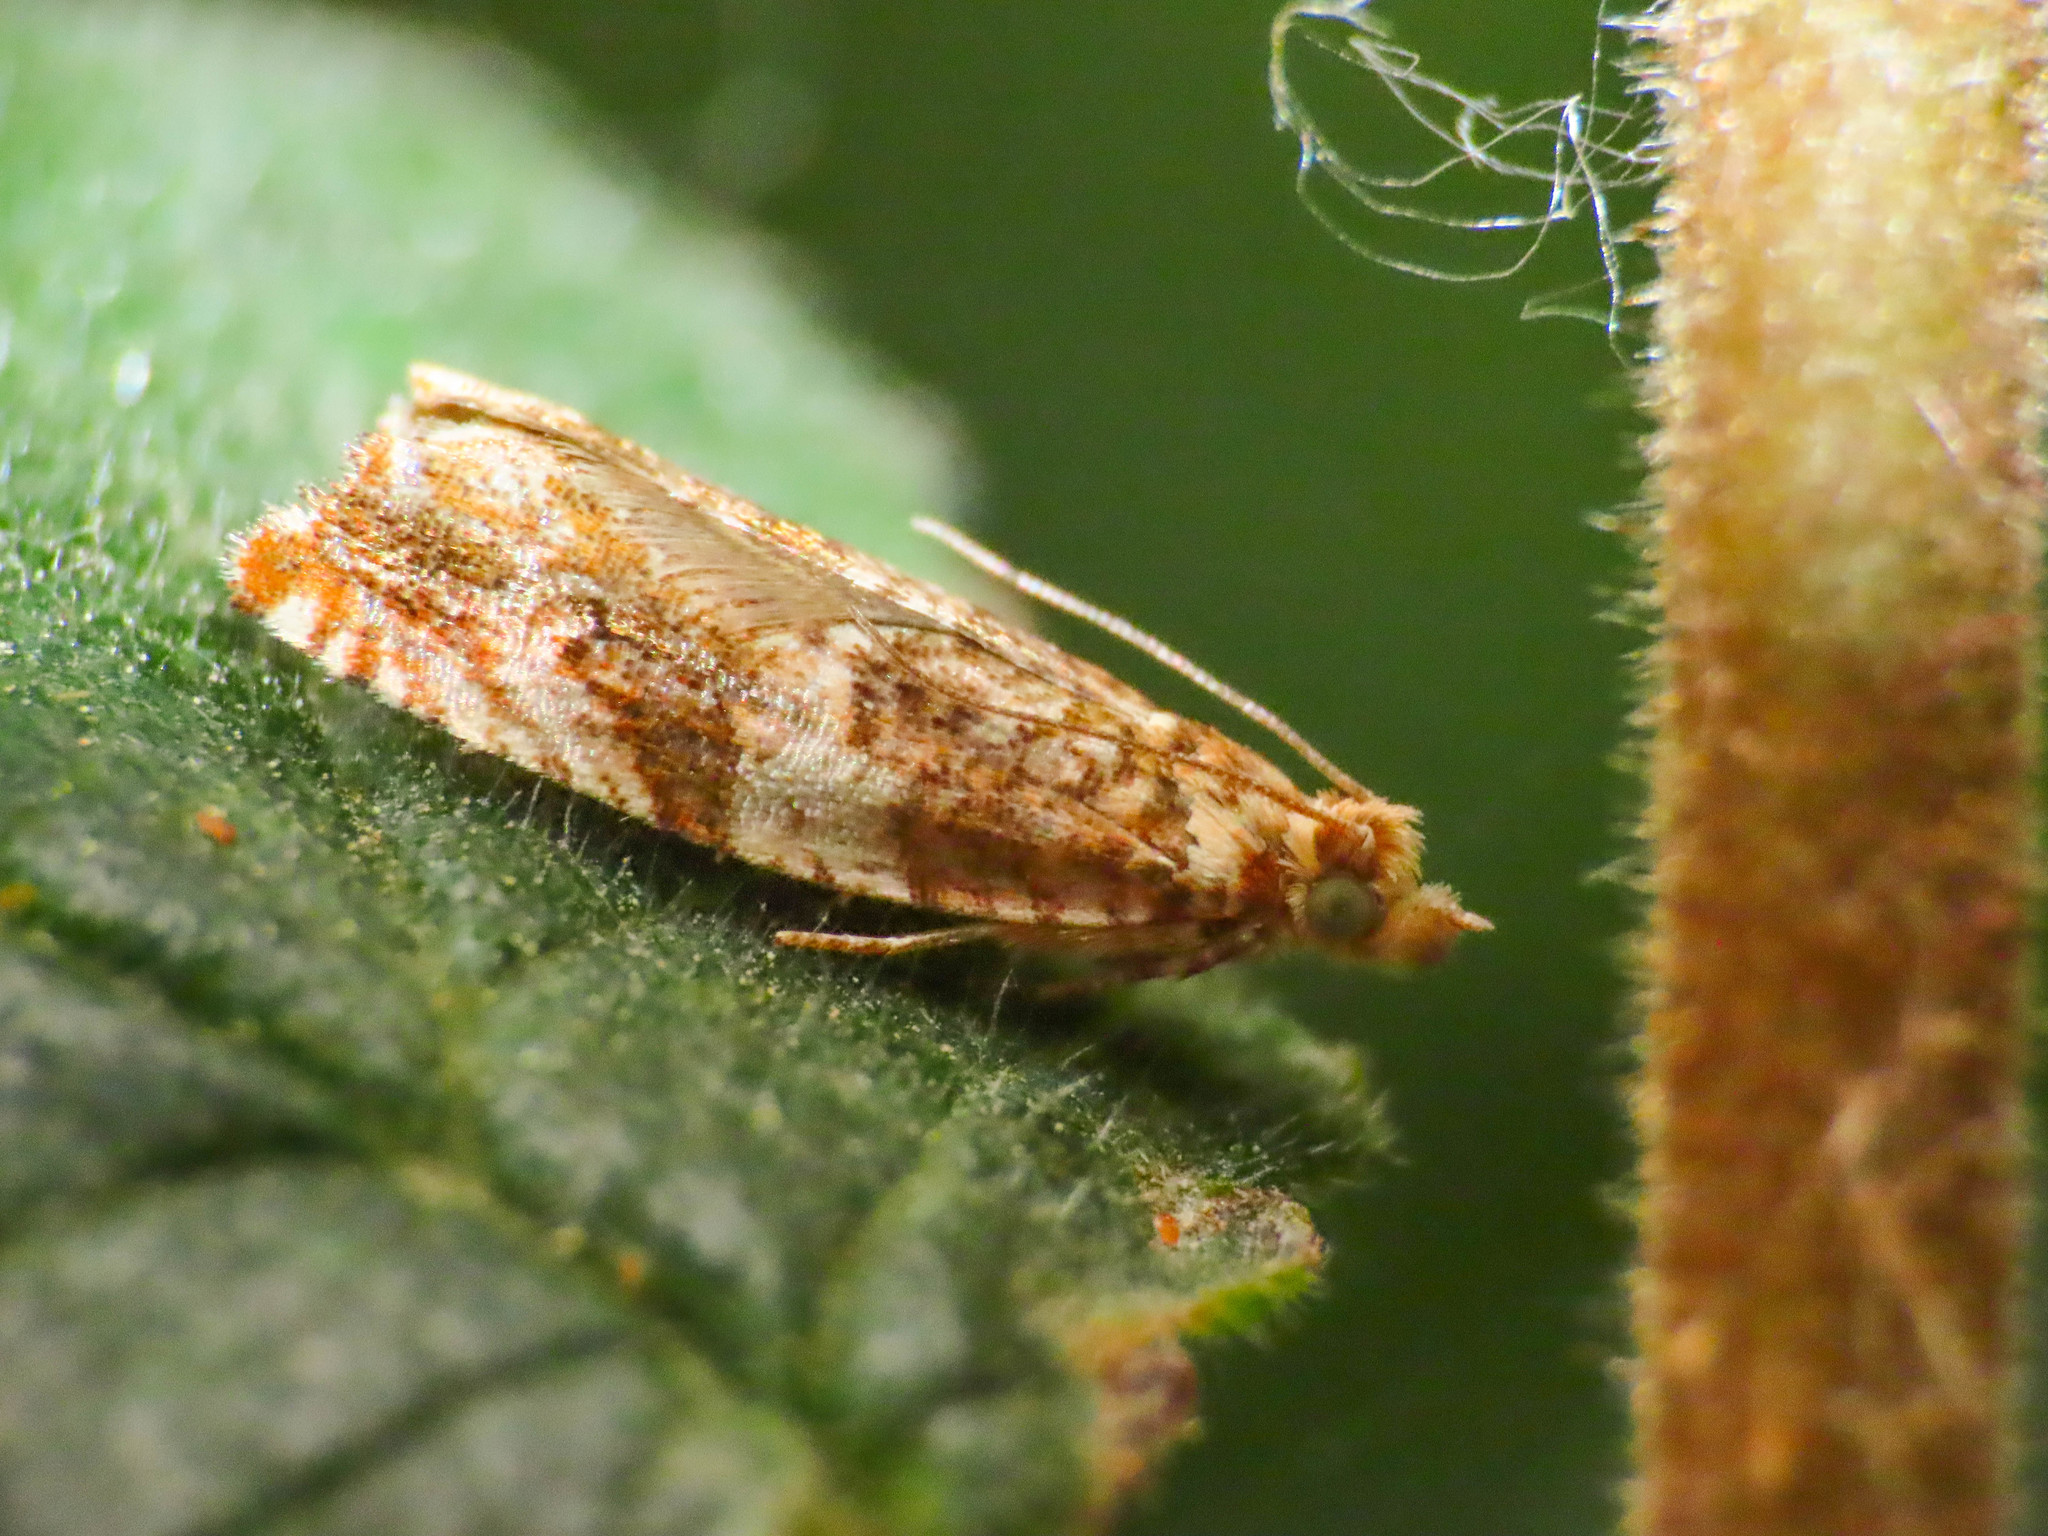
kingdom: Animalia
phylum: Arthropoda
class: Insecta
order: Lepidoptera
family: Tortricidae
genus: Epinotia
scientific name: Epinotia abbreviana
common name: Tortricid moth
